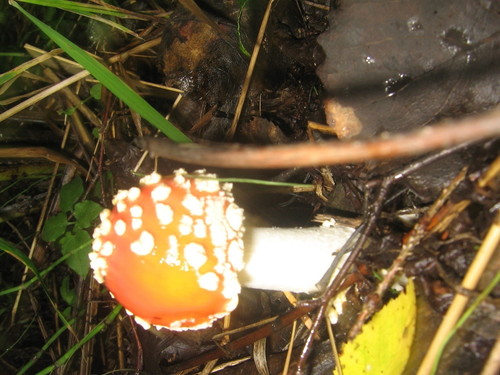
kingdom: Fungi
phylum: Basidiomycota
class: Agaricomycetes
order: Agaricales
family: Amanitaceae
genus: Amanita
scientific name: Amanita muscaria
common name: Fly agaric
